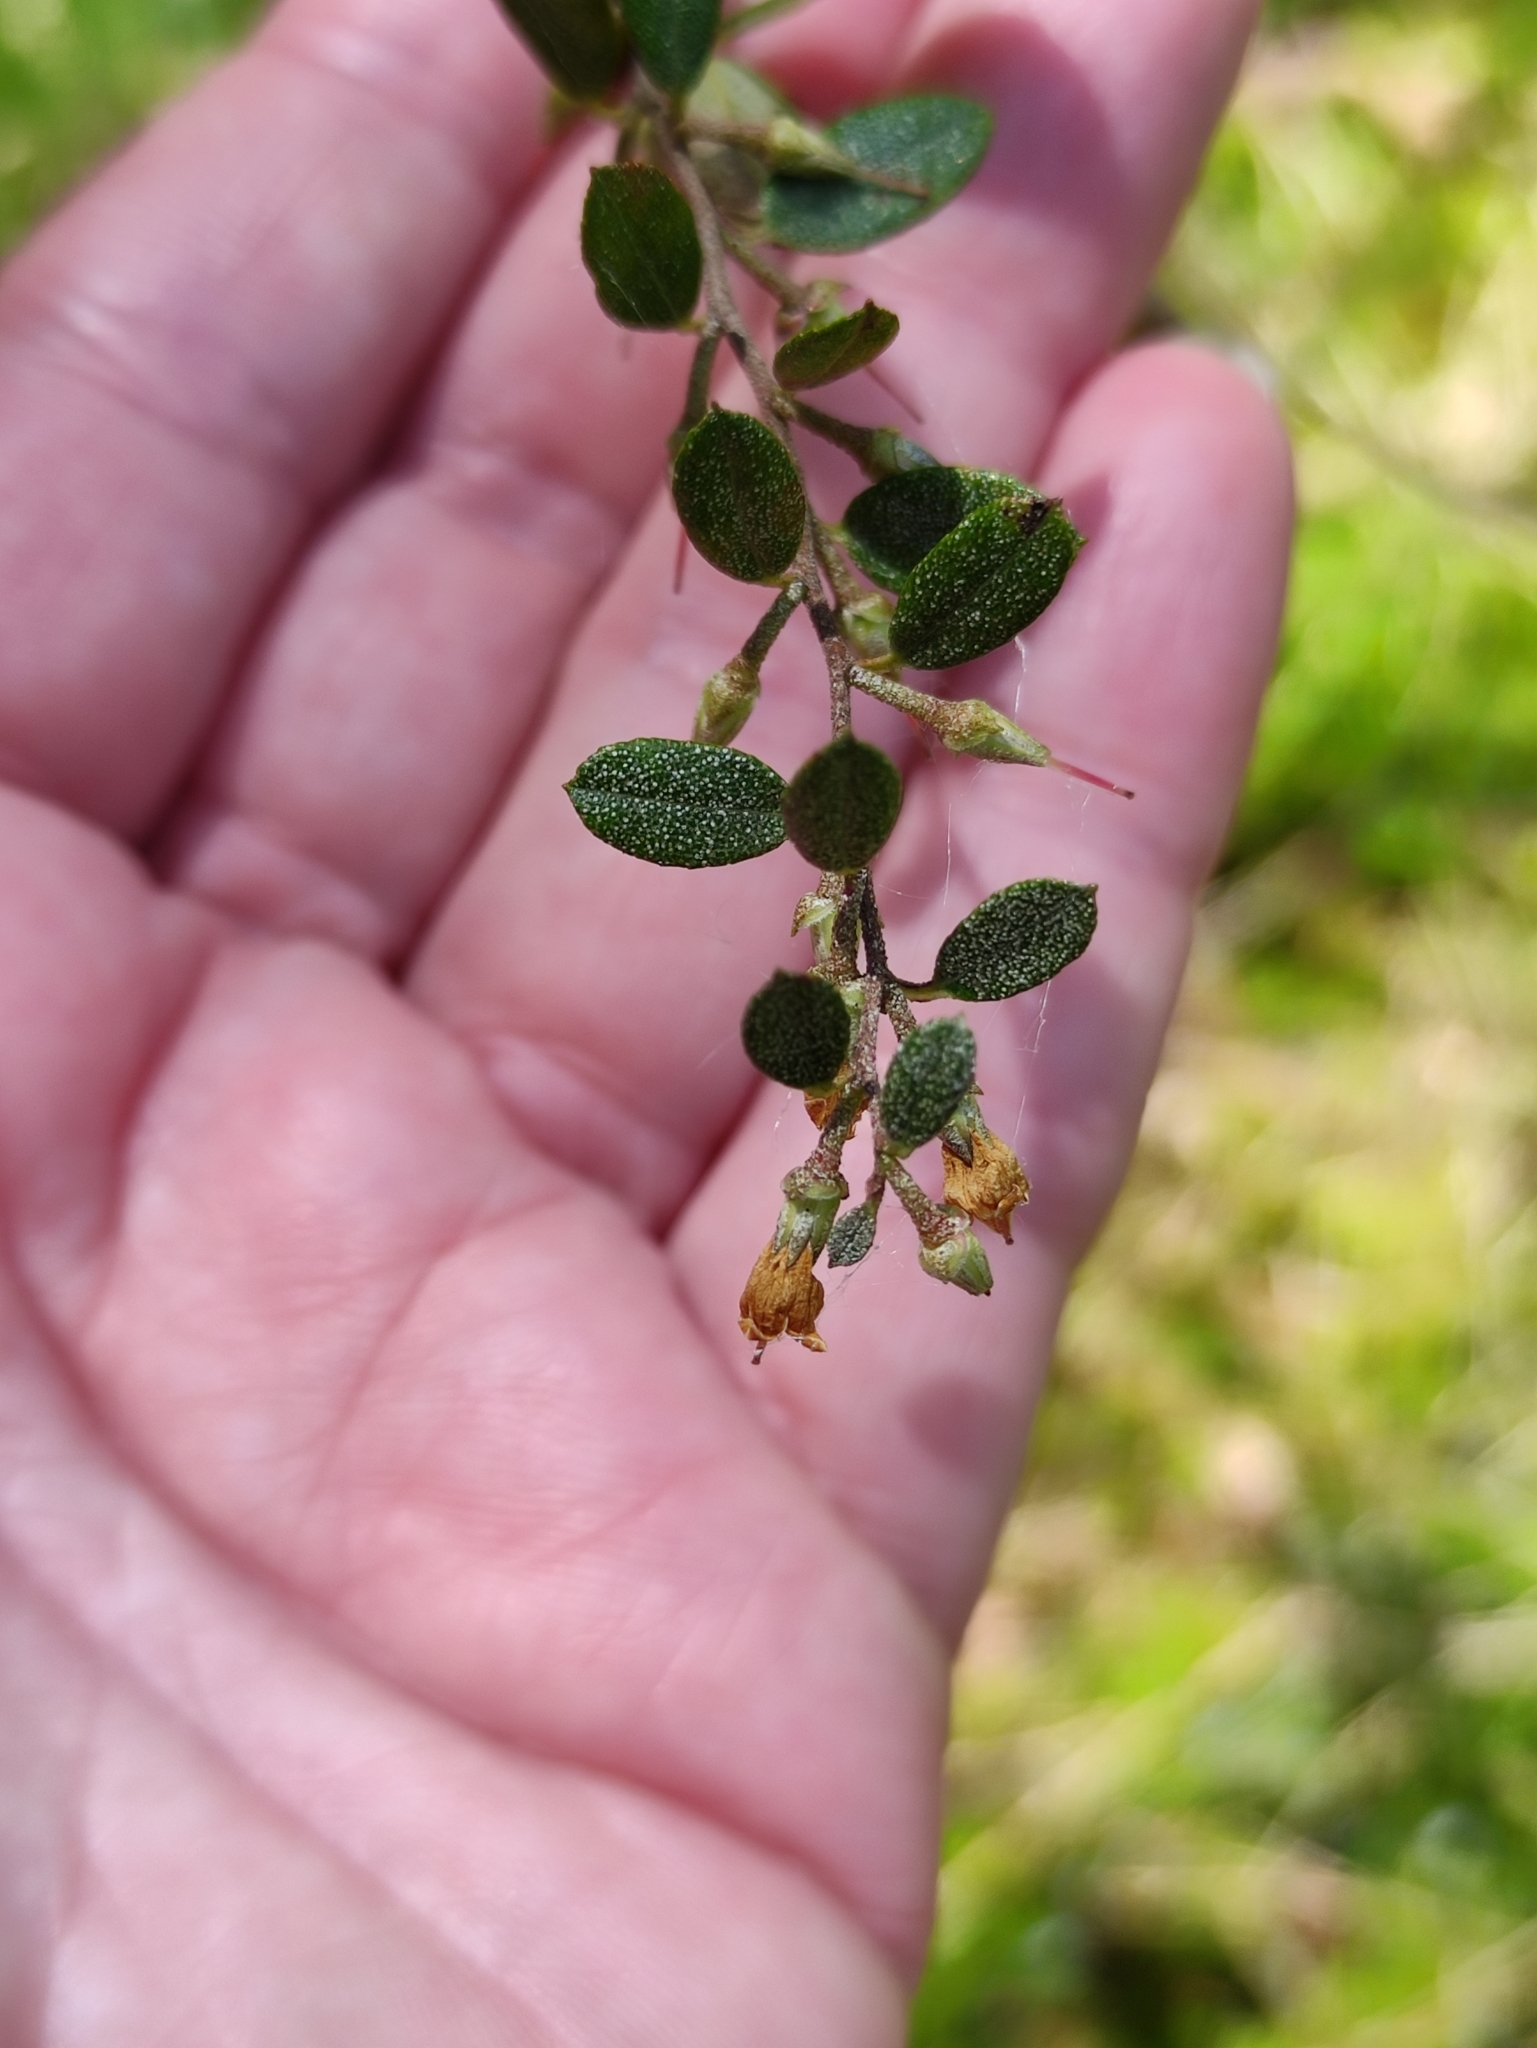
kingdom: Plantae
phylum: Tracheophyta
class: Magnoliopsida
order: Ericales
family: Ericaceae
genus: Chamaedaphne
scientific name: Chamaedaphne calyculata
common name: Leatherleaf
